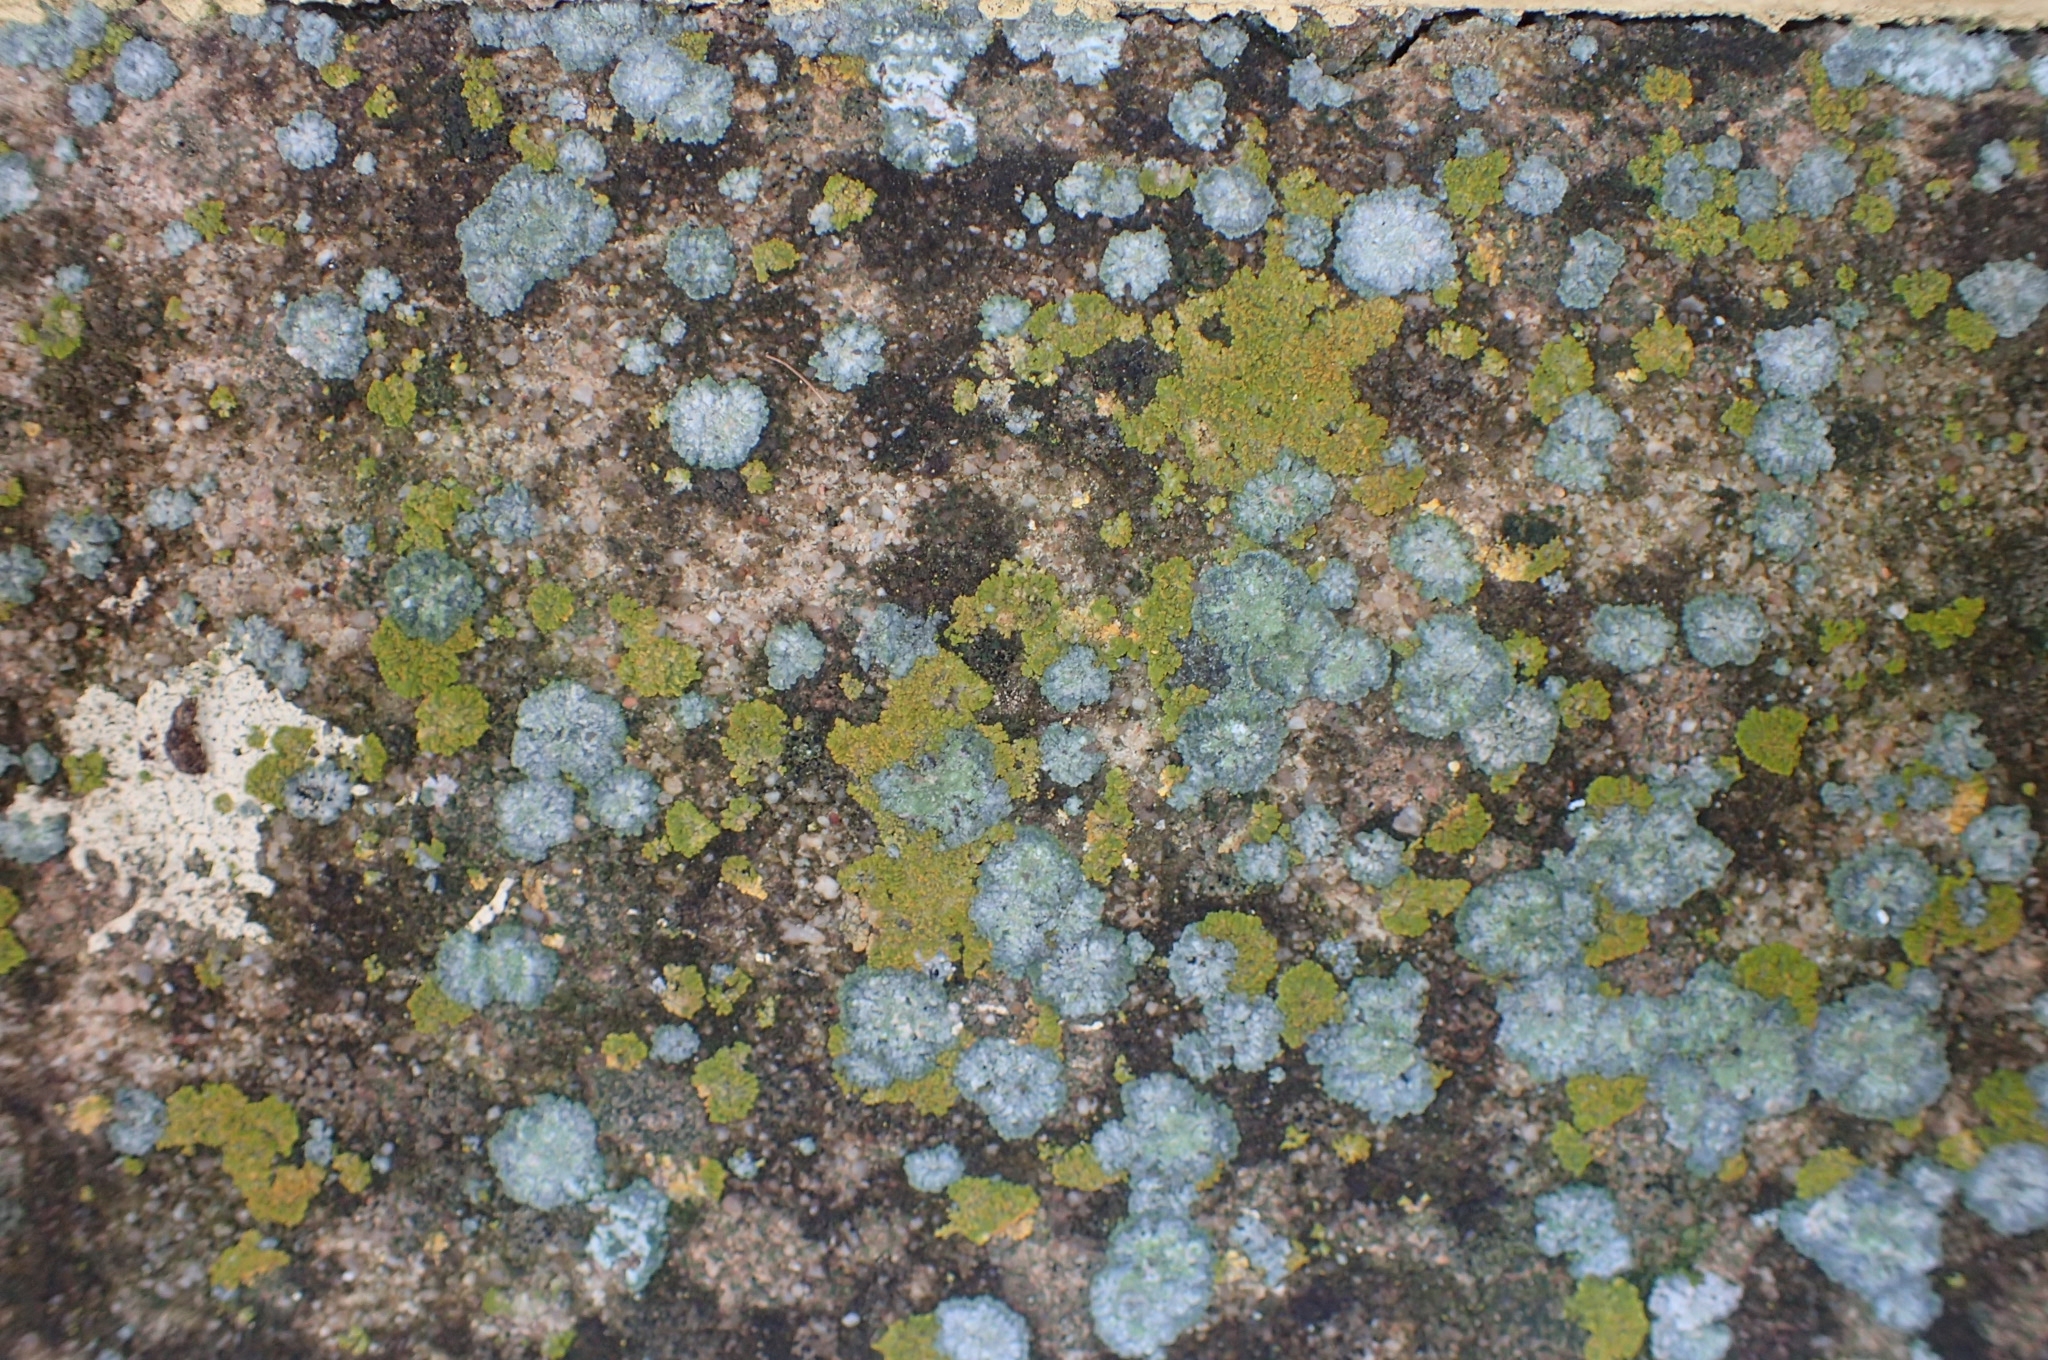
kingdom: Fungi
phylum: Ascomycota
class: Lecanoromycetes
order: Teloschistales
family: Teloschistaceae
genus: Calogaya
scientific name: Calogaya decipiens
